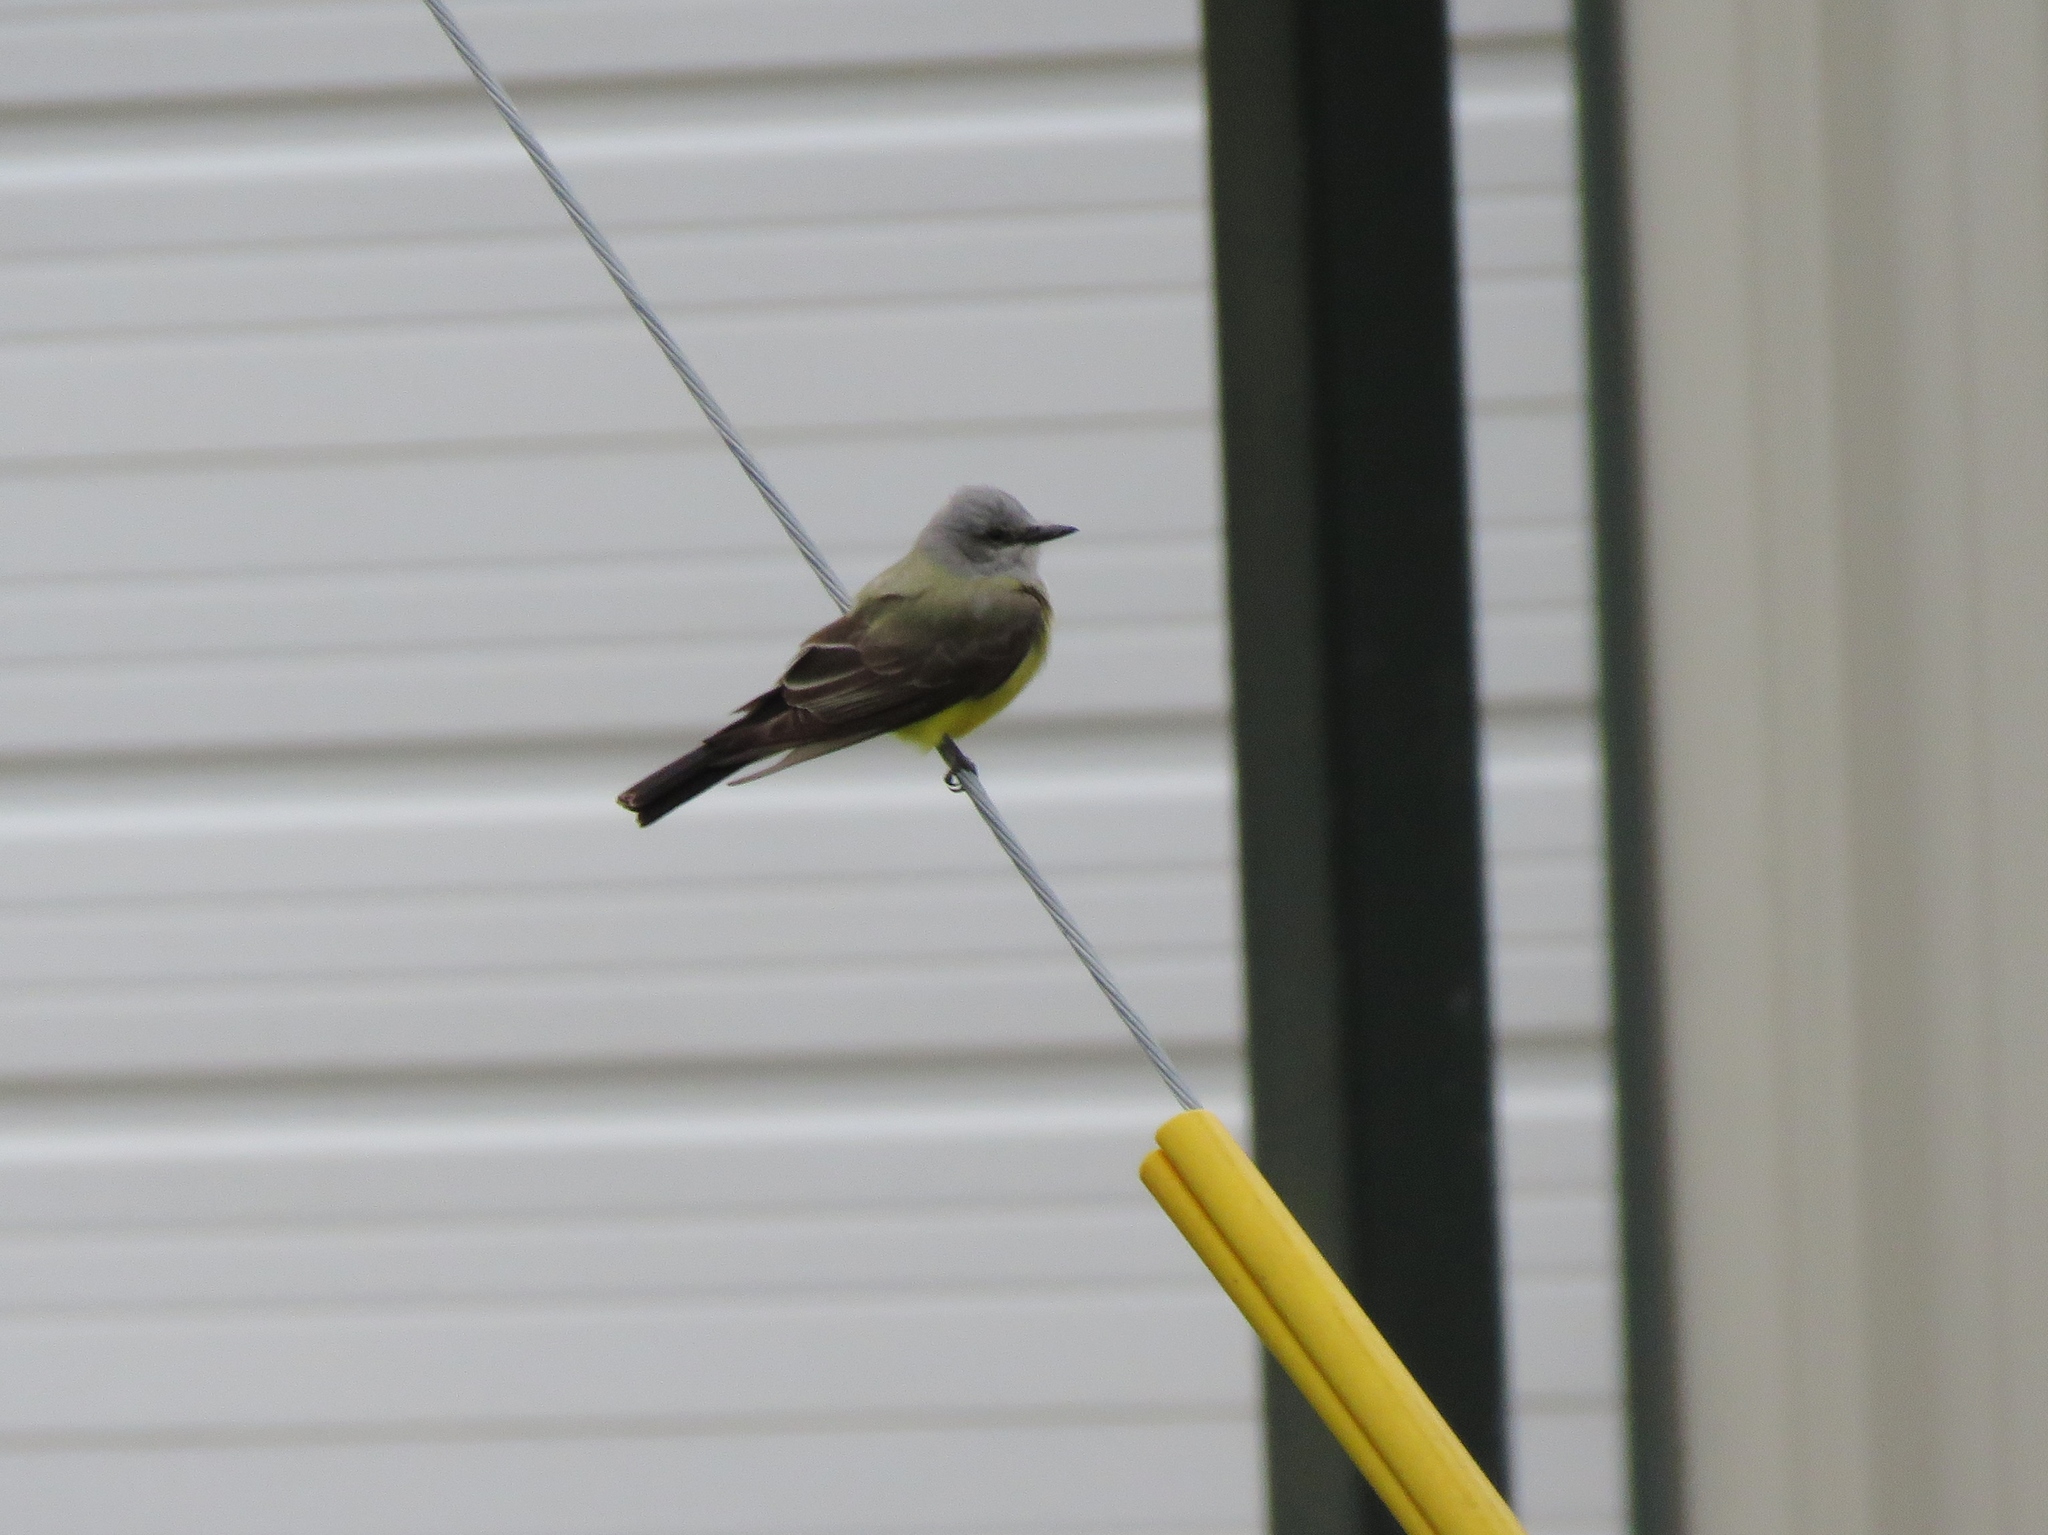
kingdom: Animalia
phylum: Chordata
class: Aves
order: Passeriformes
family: Tyrannidae
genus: Tyrannus
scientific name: Tyrannus verticalis
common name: Western kingbird
